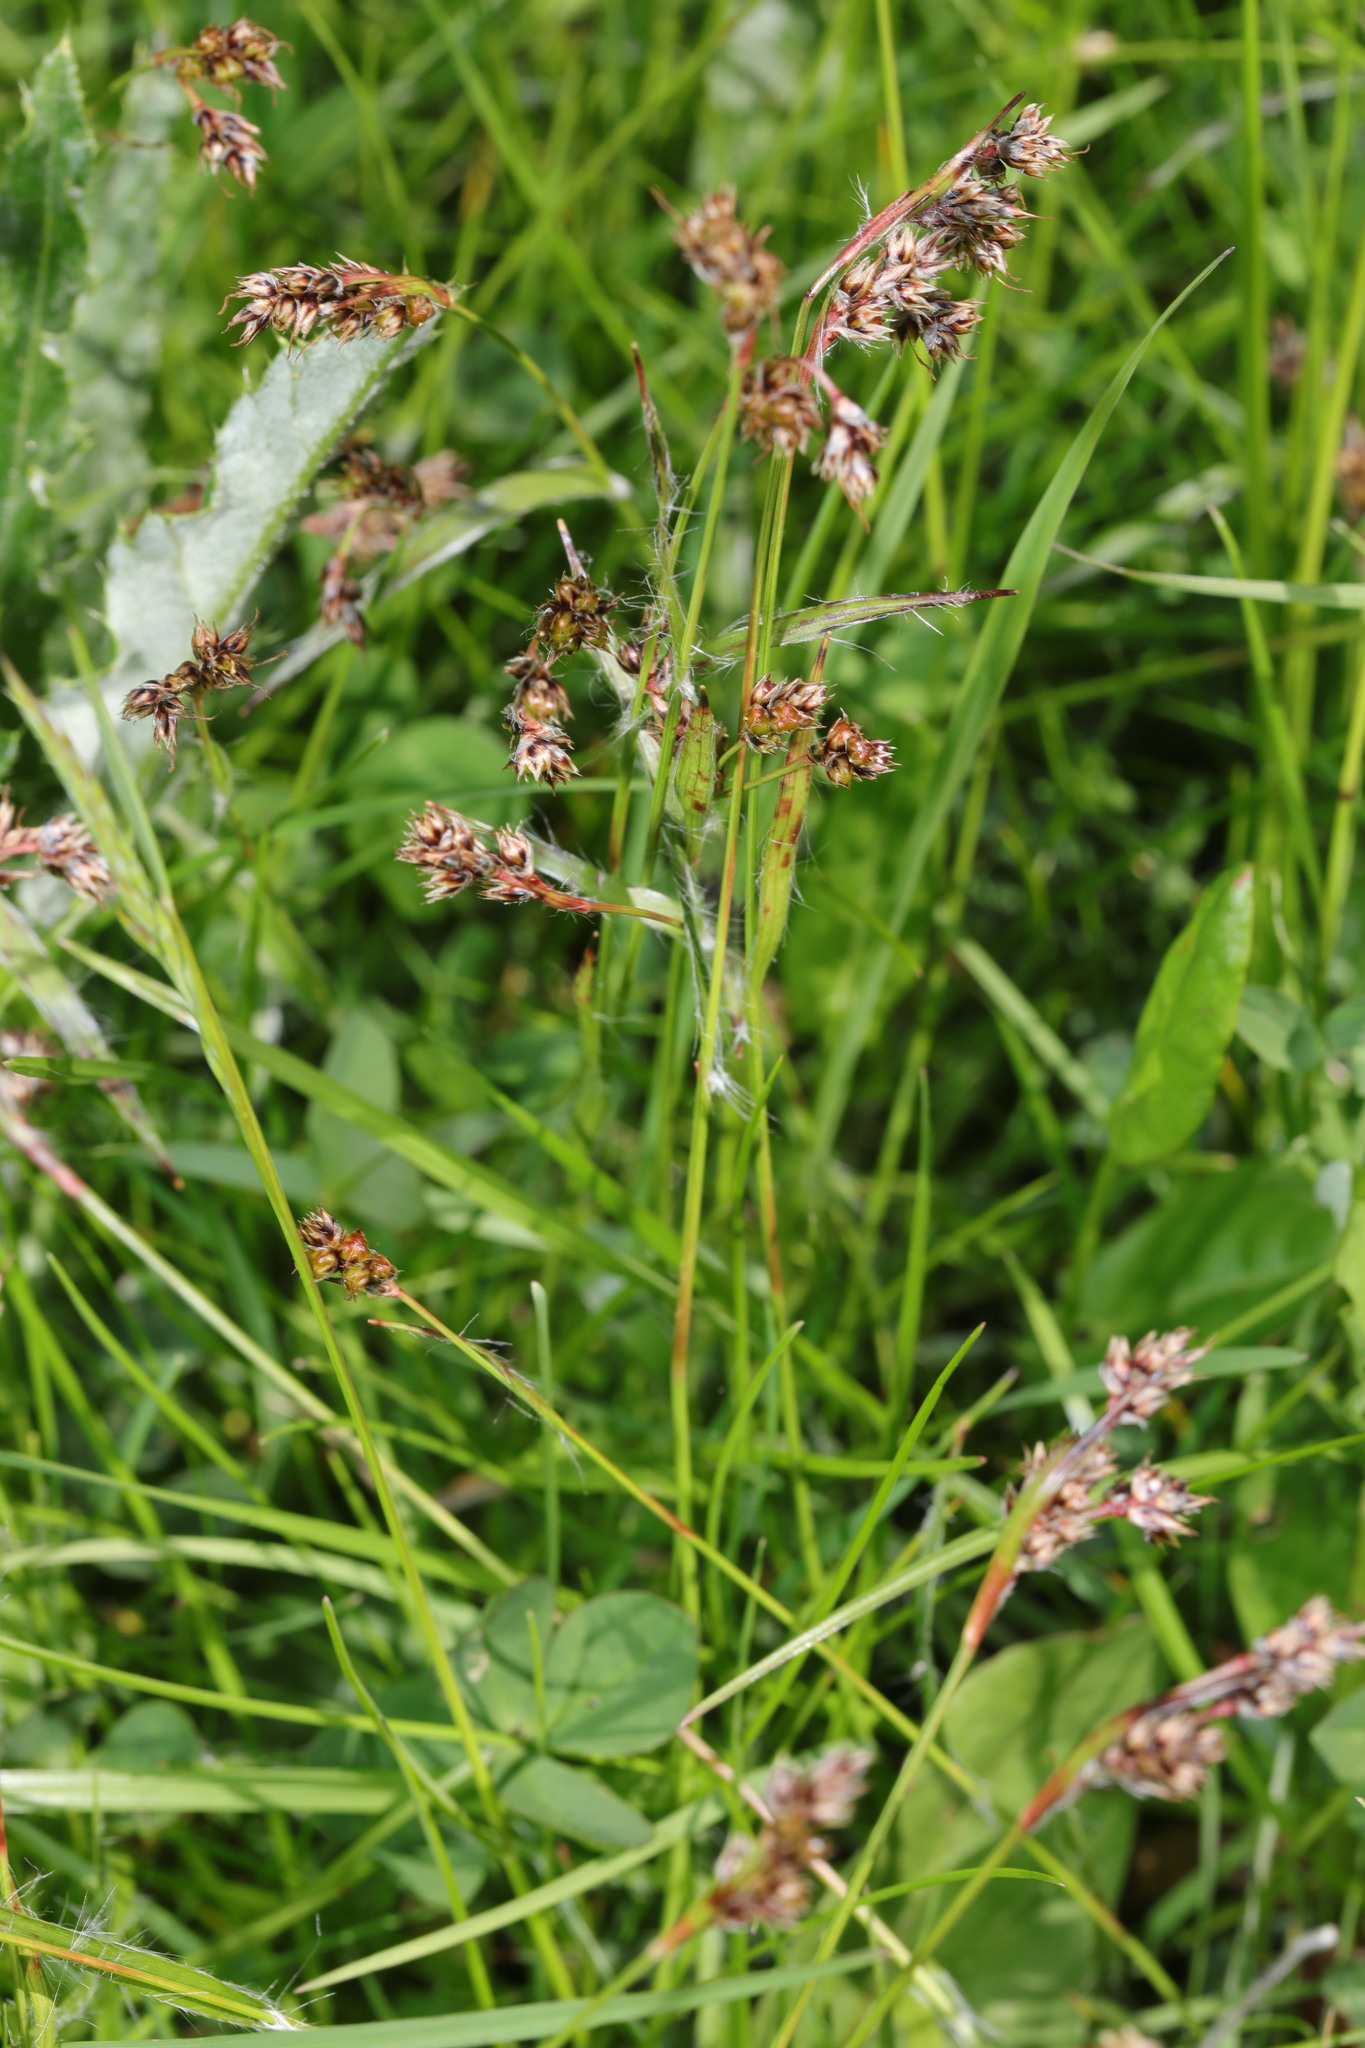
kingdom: Plantae
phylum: Tracheophyta
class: Liliopsida
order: Poales
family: Juncaceae
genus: Luzula
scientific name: Luzula campestris
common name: Field wood-rush
